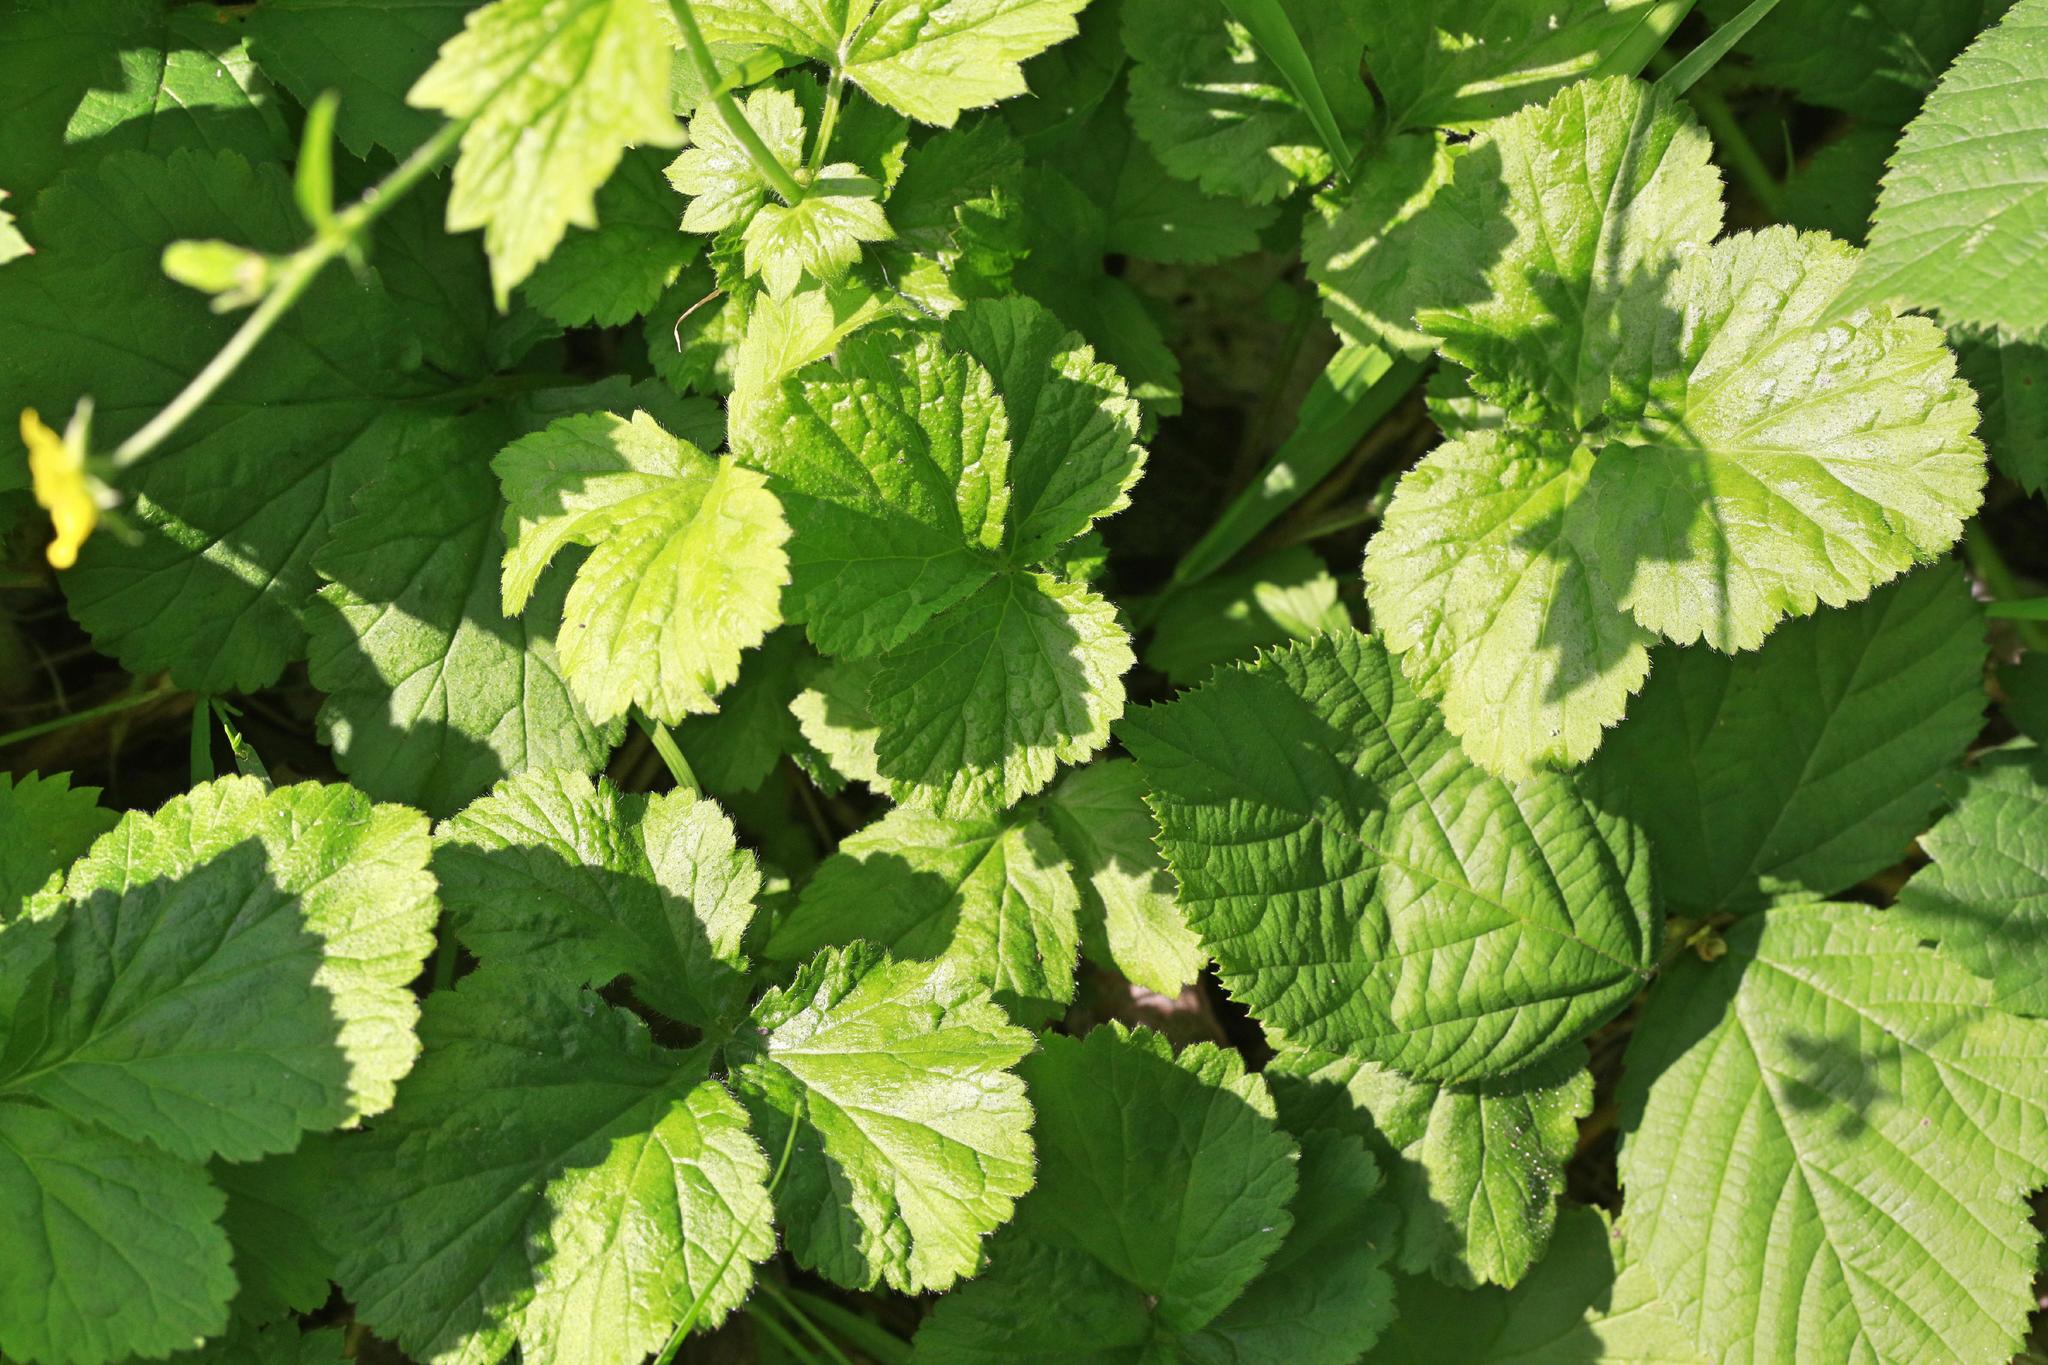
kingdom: Plantae
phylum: Tracheophyta
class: Magnoliopsida
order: Rosales
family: Rosaceae
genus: Geum
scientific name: Geum urbanum
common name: Wood avens
